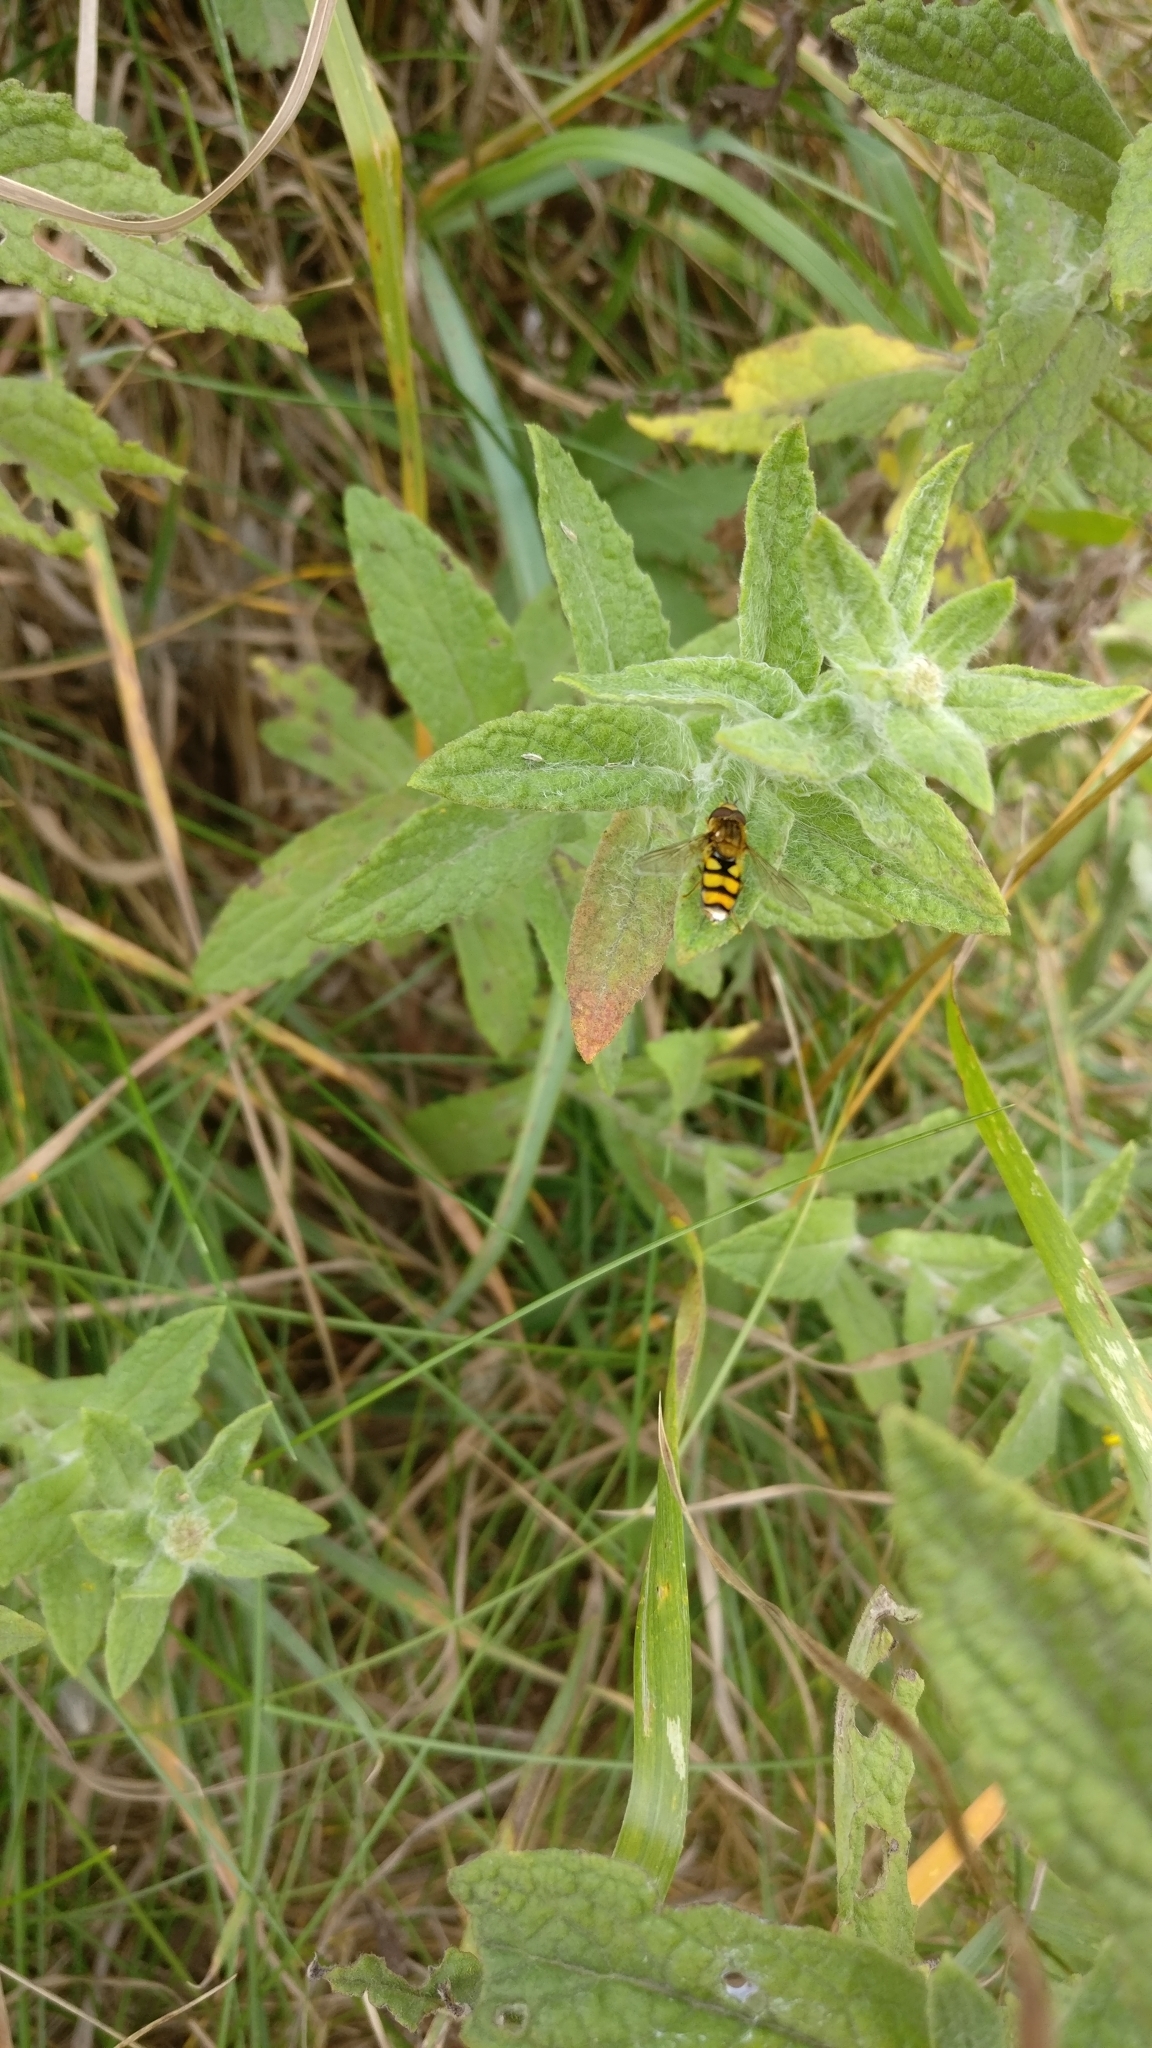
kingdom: Animalia
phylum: Arthropoda
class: Insecta
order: Diptera
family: Syrphidae
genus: Eupeodes
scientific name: Eupeodes latifasciatus
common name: Variable aphideater
